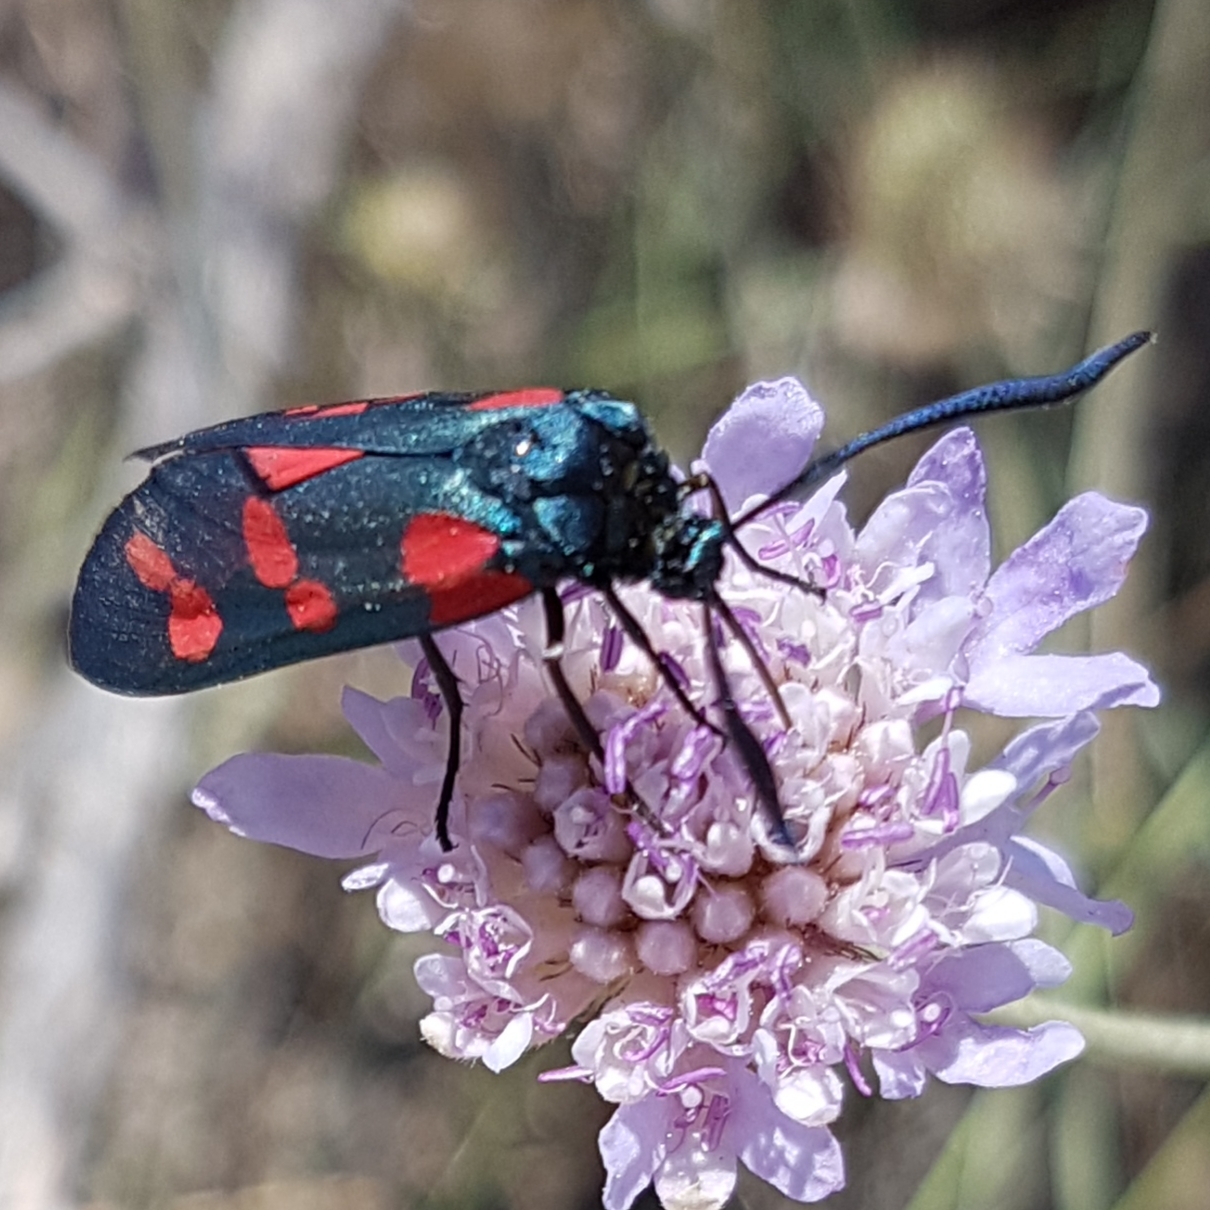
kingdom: Animalia
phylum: Arthropoda
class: Insecta
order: Lepidoptera
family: Zygaenidae
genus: Zygaena
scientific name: Zygaena filipendulae
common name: Six-spot burnet
